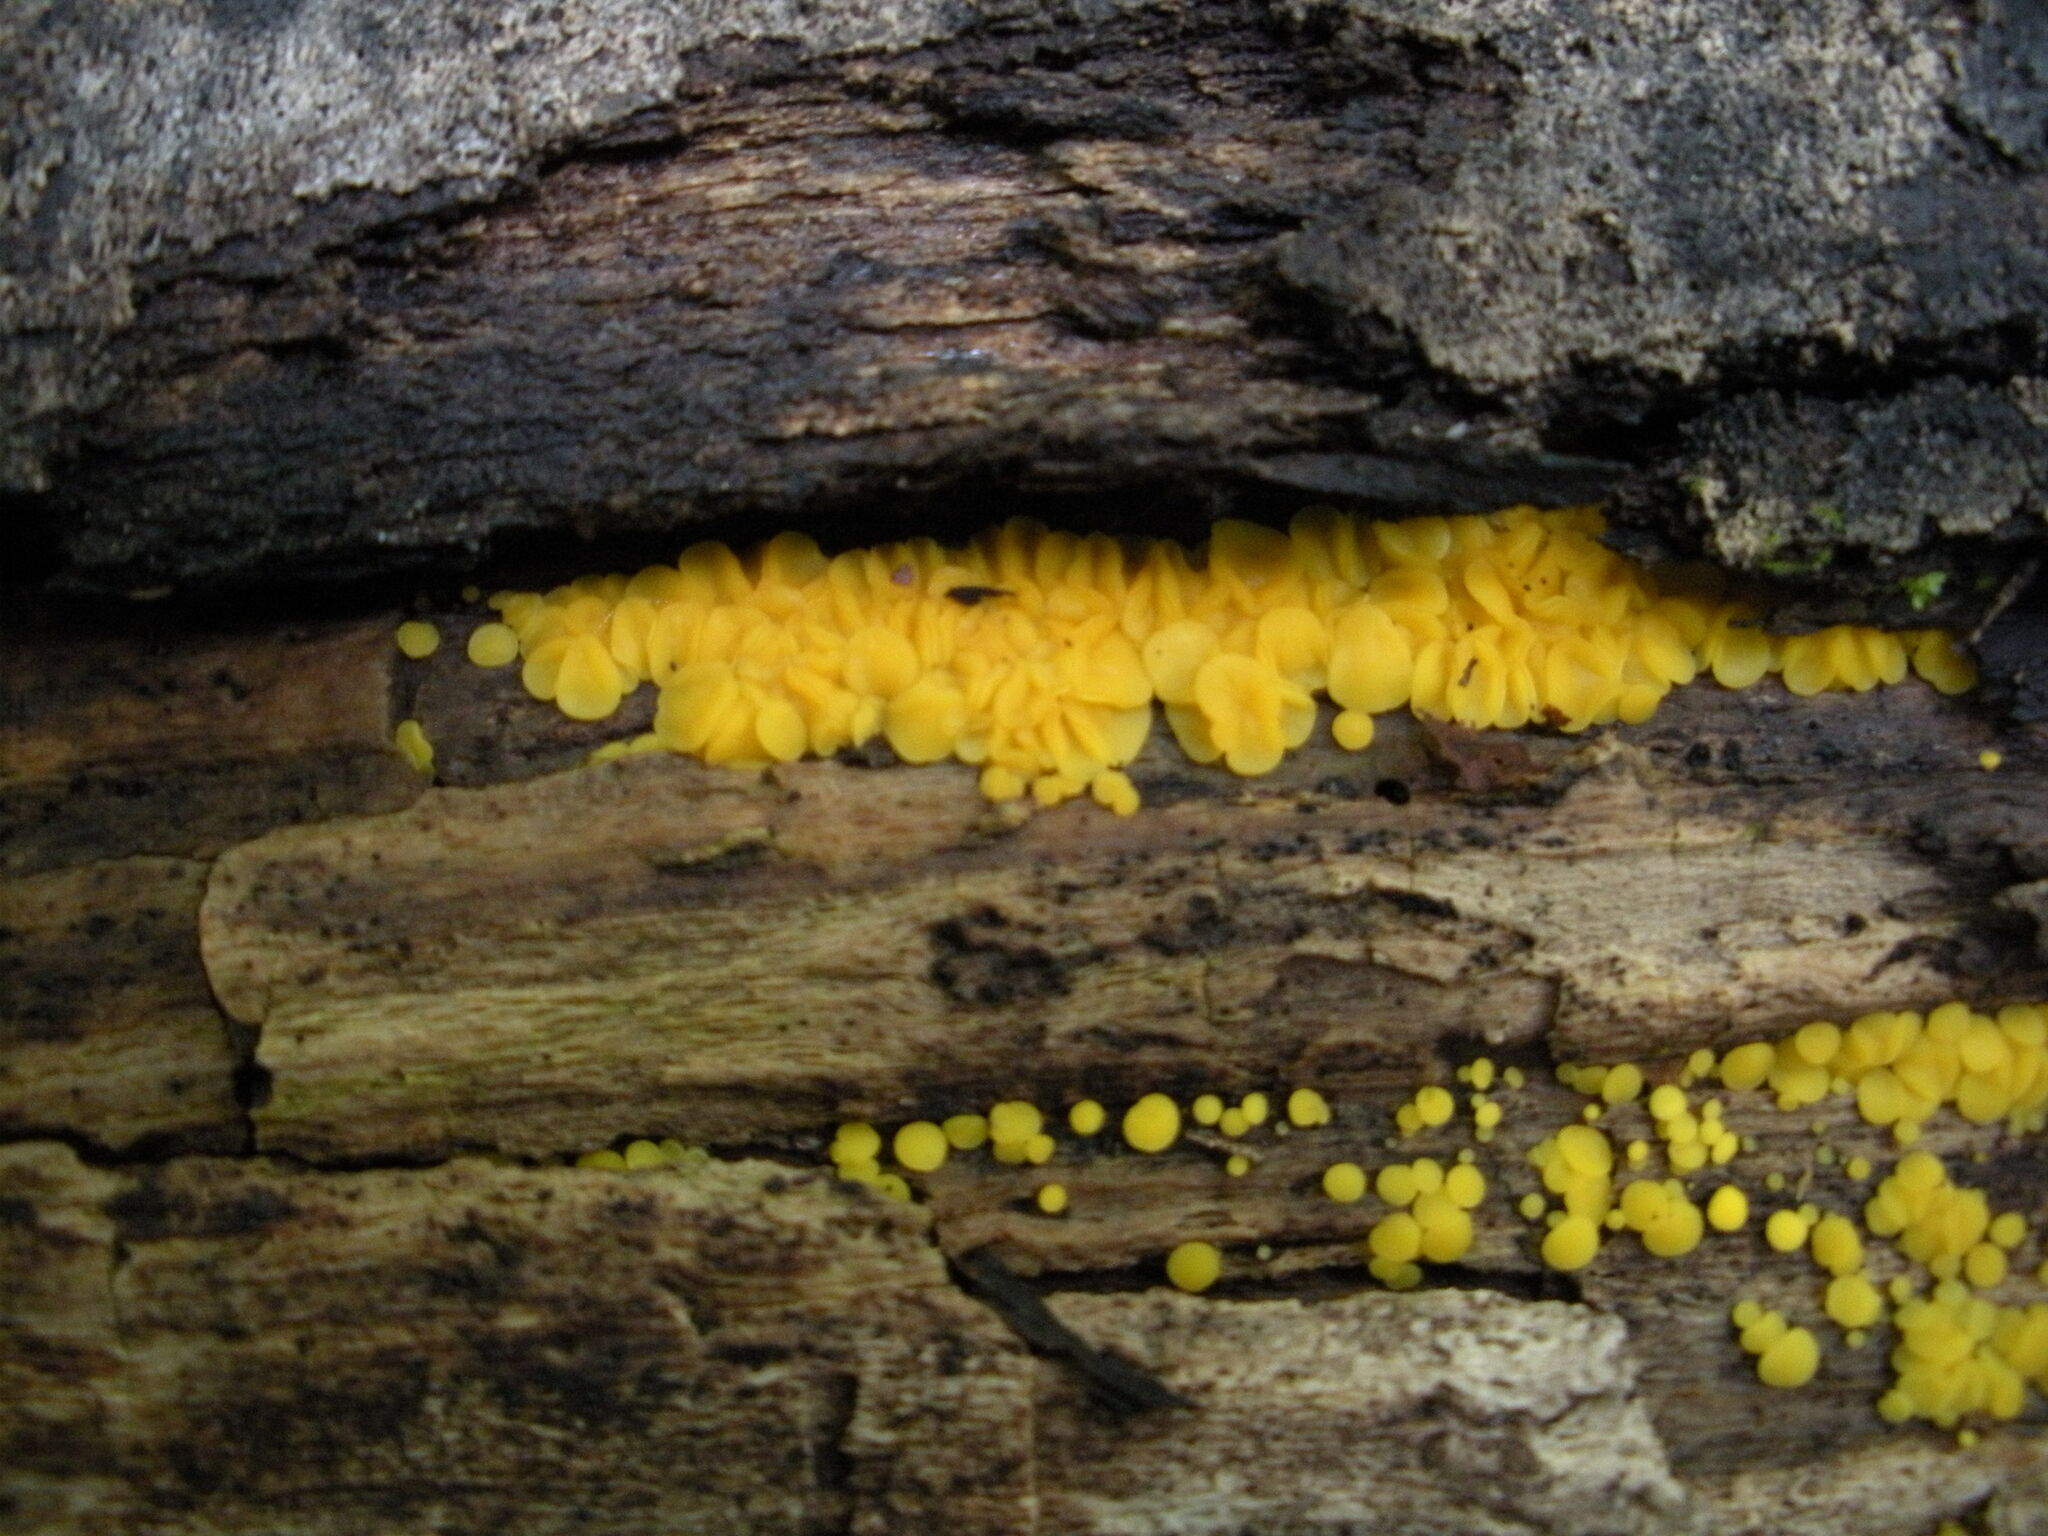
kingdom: Fungi
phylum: Ascomycota
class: Leotiomycetes
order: Helotiales
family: Pezizellaceae
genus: Calycina
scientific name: Calycina citrina
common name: Yellow fairy cups
